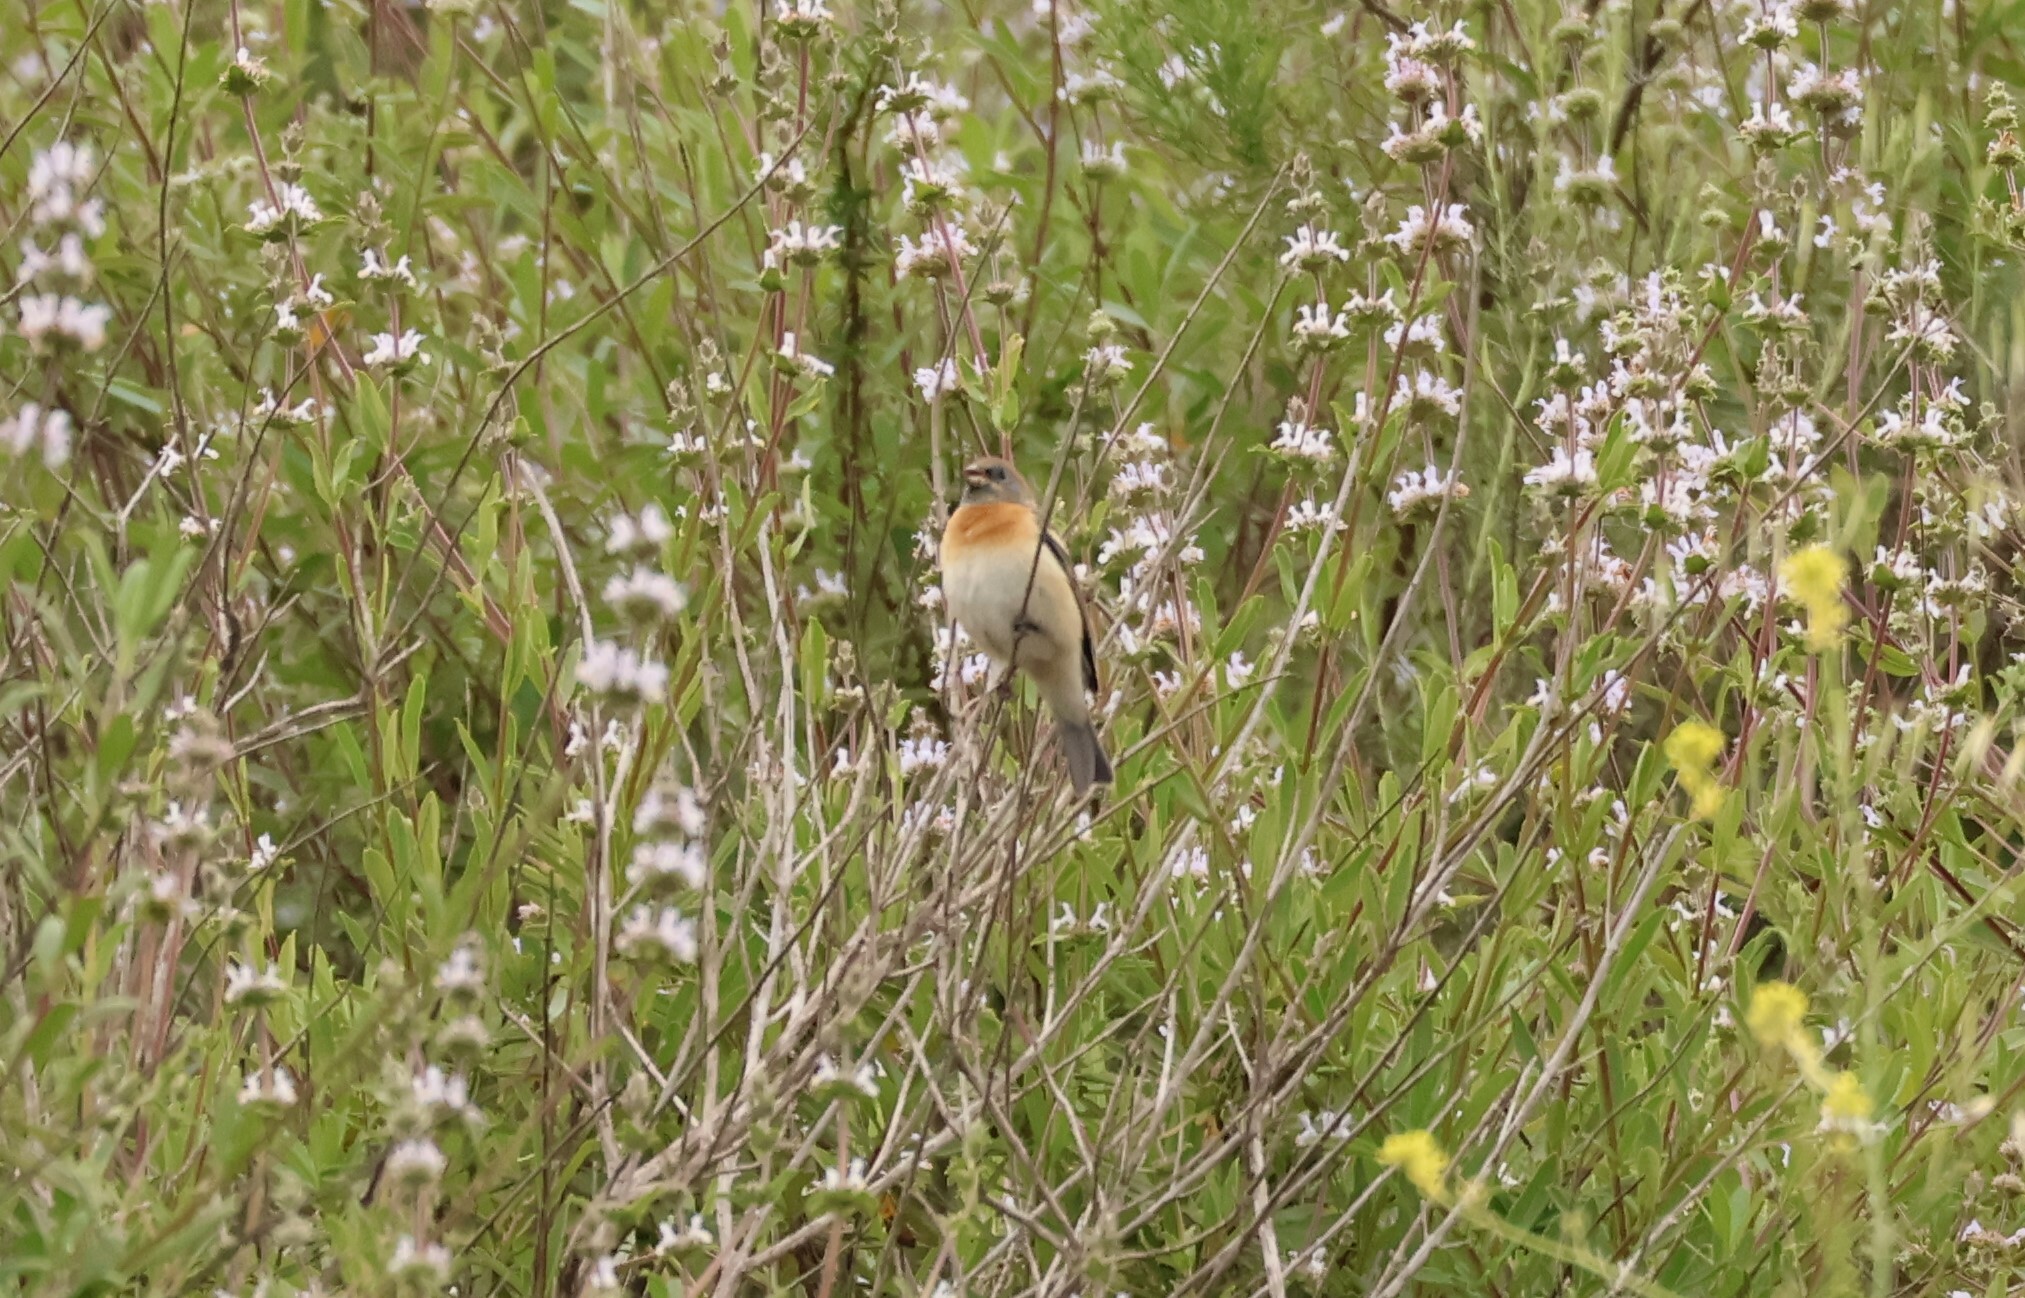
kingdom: Animalia
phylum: Chordata
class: Aves
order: Passeriformes
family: Cardinalidae
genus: Passerina
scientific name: Passerina amoena
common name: Lazuli bunting
